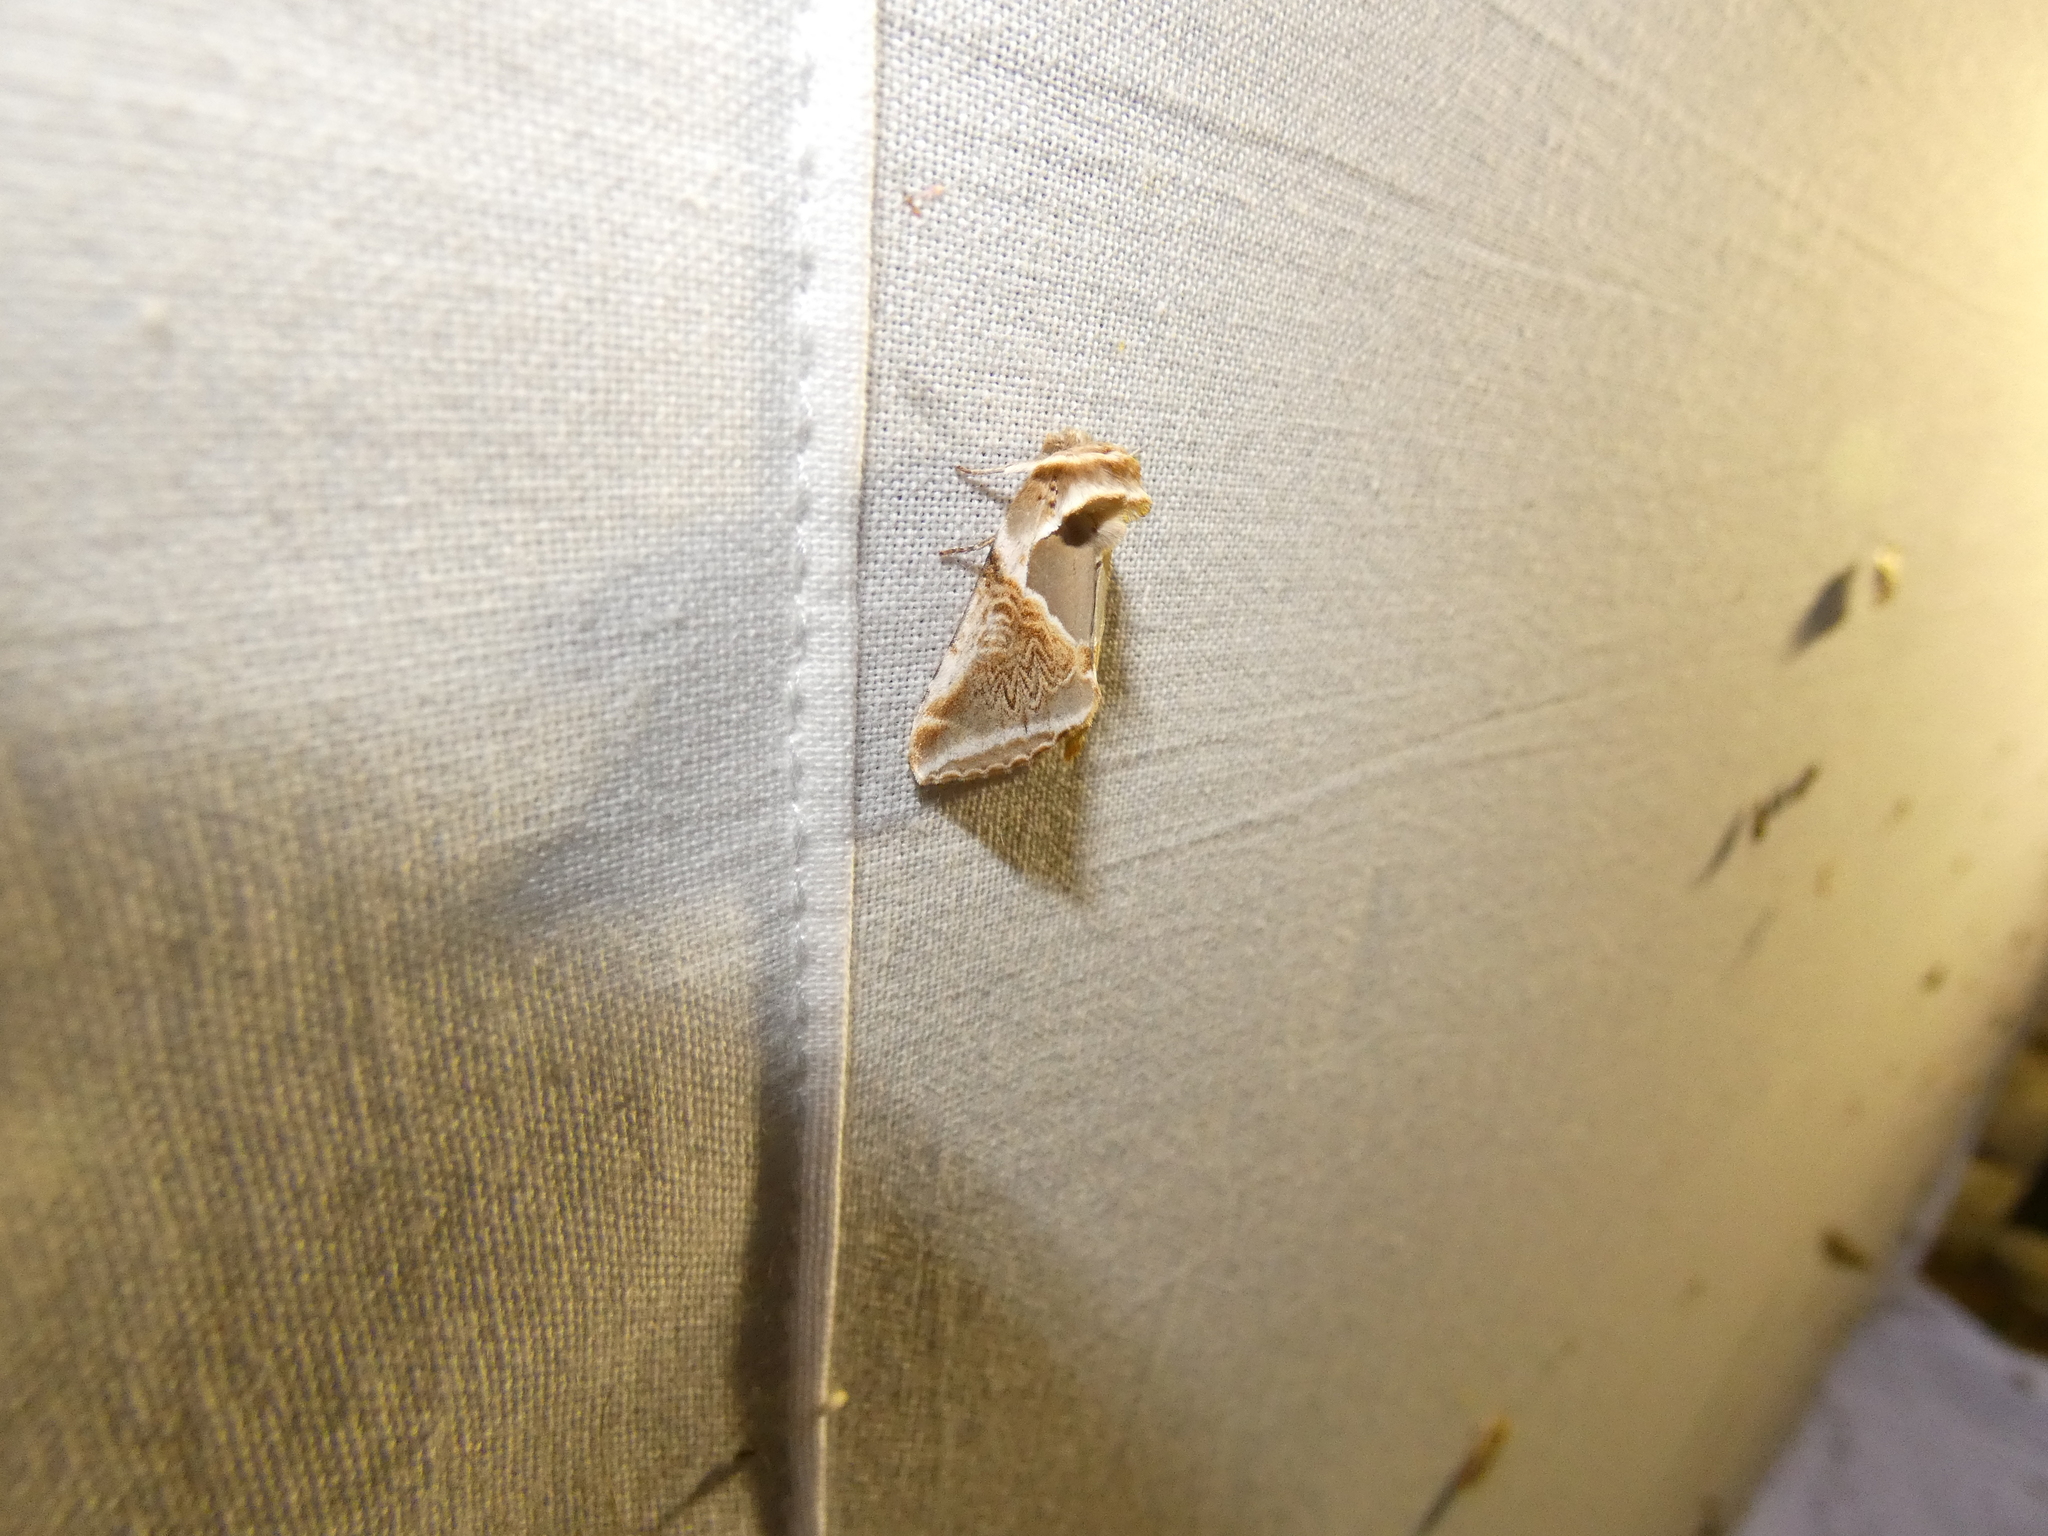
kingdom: Animalia
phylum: Arthropoda
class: Insecta
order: Lepidoptera
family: Drepanidae
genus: Habrosyne
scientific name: Habrosyne pyritoides
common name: Buff arches
